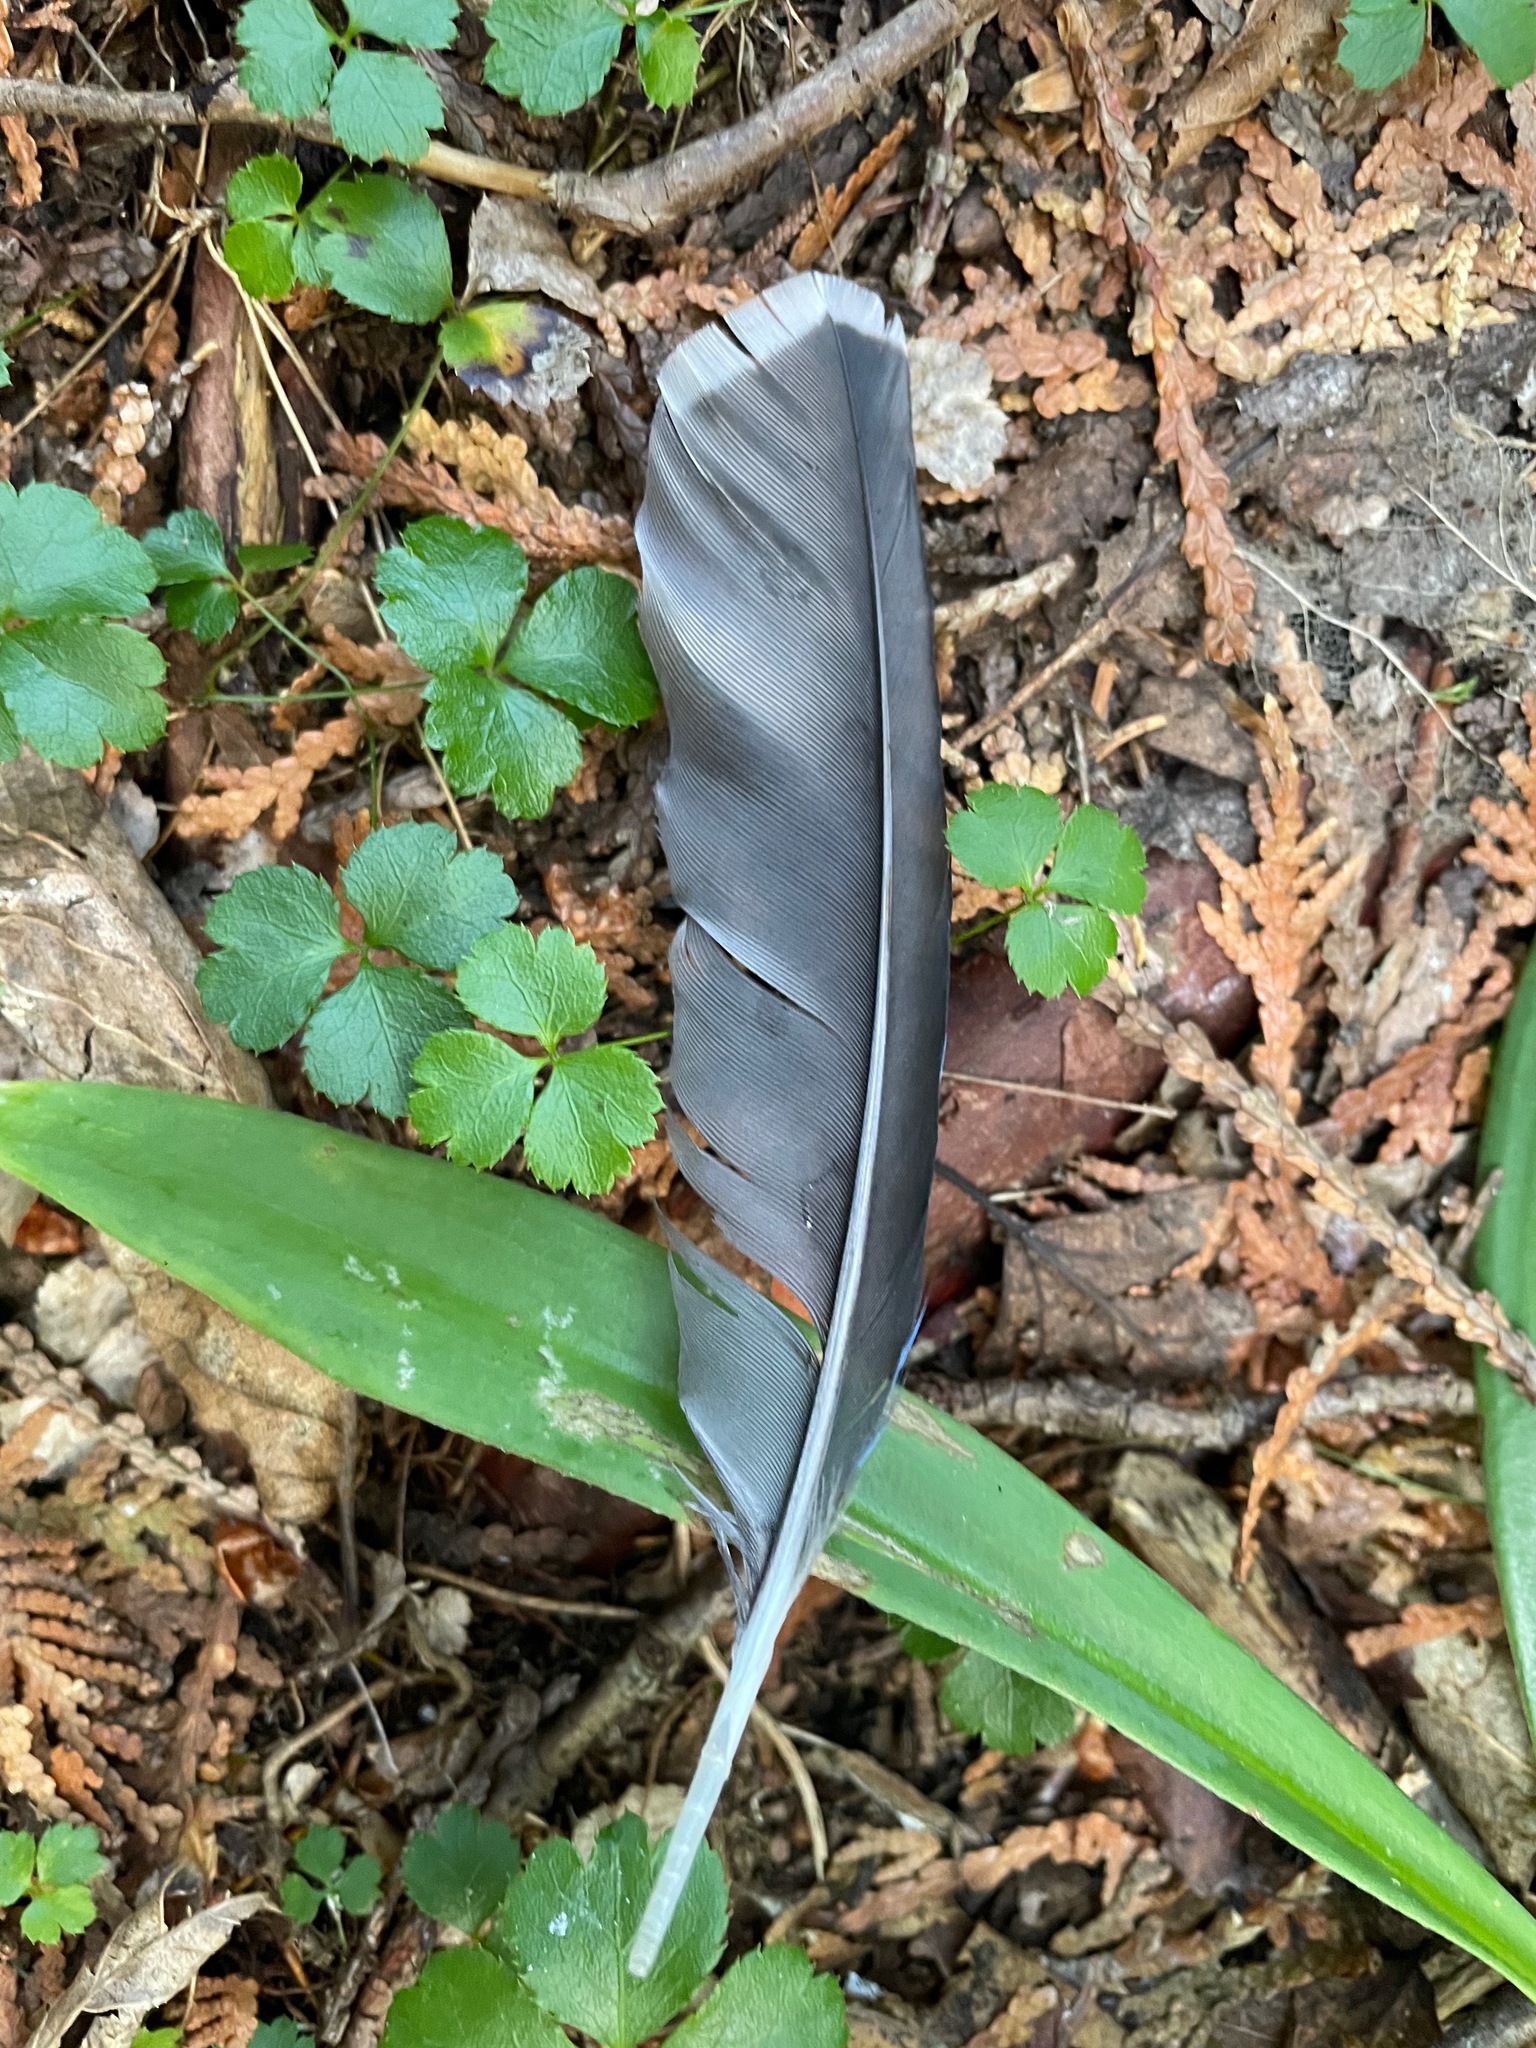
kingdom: Animalia
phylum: Chordata
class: Aves
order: Passeriformes
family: Corvidae
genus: Cyanocitta
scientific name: Cyanocitta cristata
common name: Blue jay
